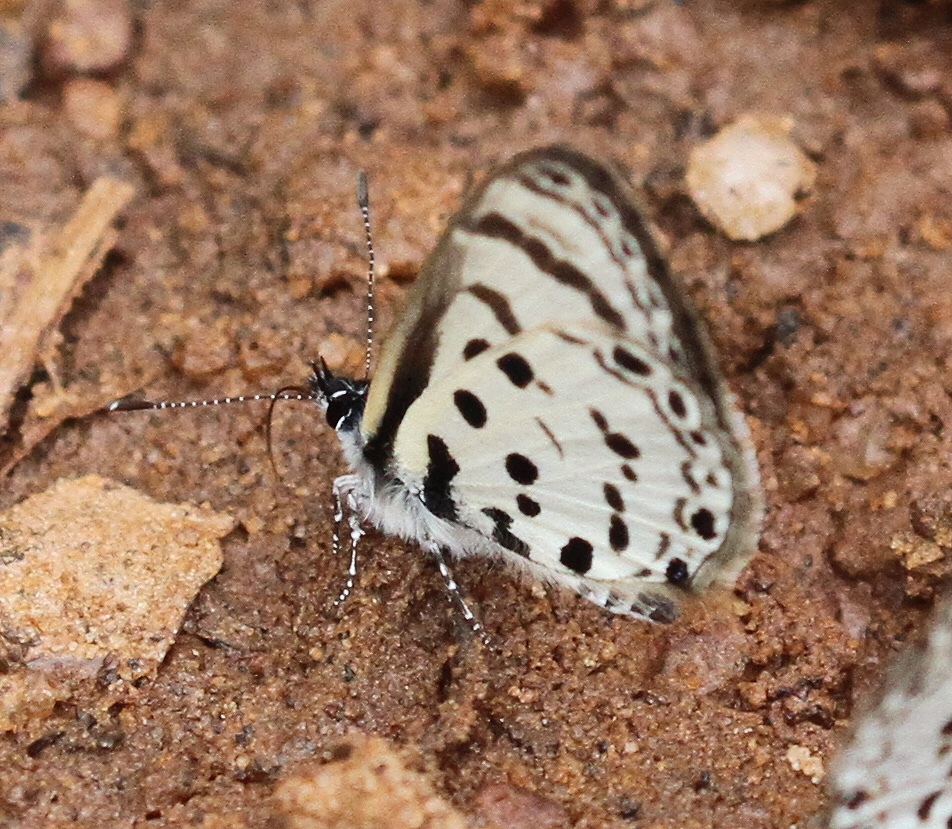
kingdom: Animalia
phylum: Arthropoda
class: Insecta
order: Lepidoptera
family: Lycaenidae
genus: Azanus
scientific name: Azanus moriqua
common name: Thorn-tree babul blue
